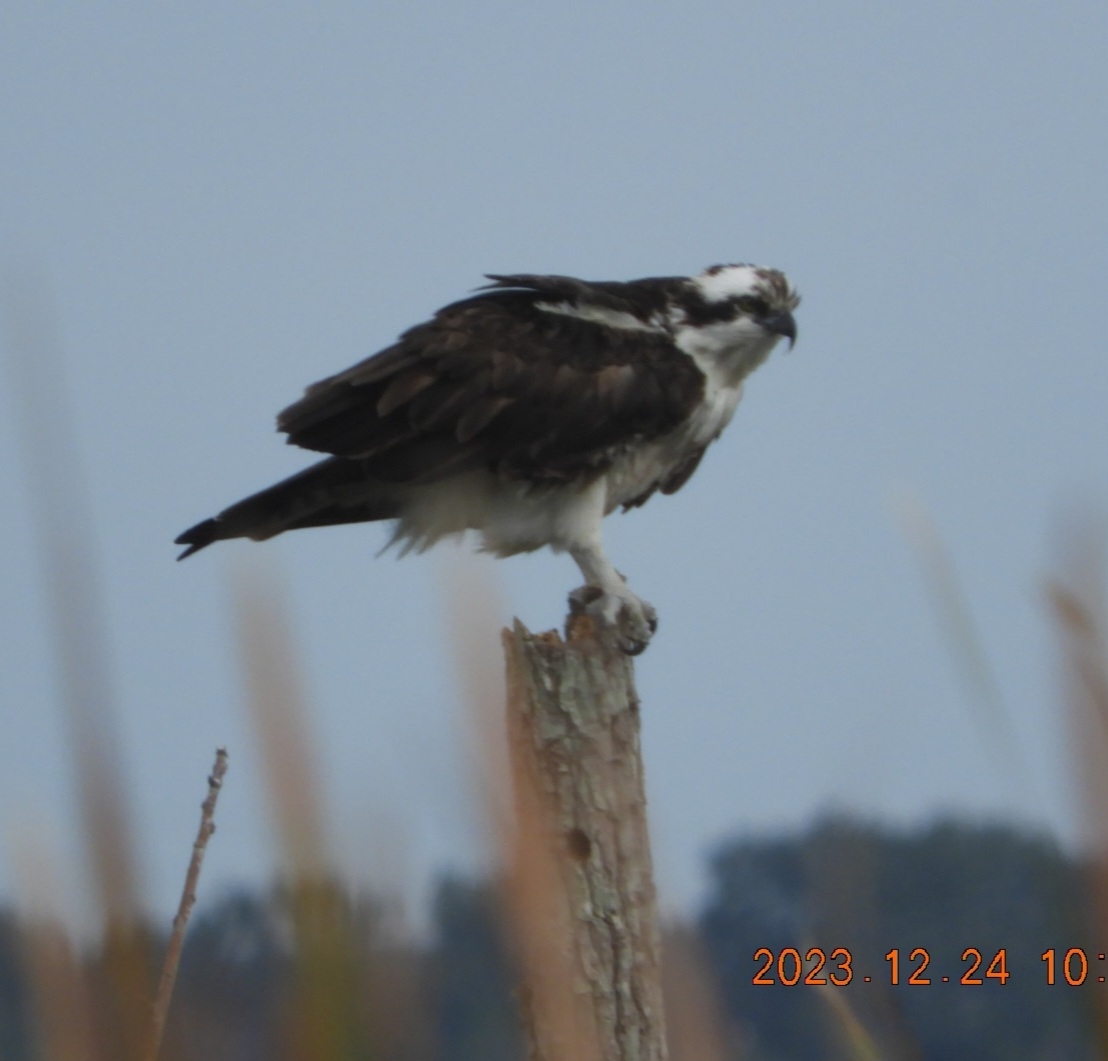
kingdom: Animalia
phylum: Chordata
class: Aves
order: Accipitriformes
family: Pandionidae
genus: Pandion
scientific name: Pandion haliaetus
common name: Osprey
